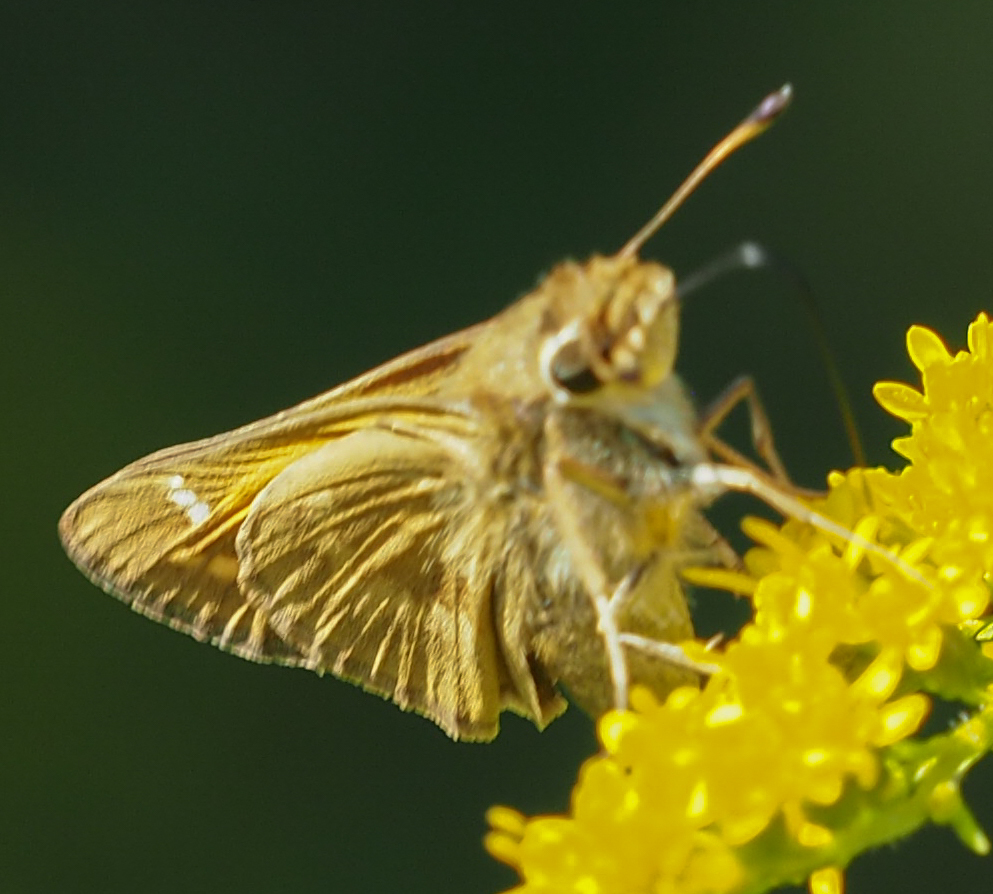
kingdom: Animalia
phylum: Arthropoda
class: Insecta
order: Lepidoptera
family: Hesperiidae
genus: Atalopedes
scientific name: Atalopedes
